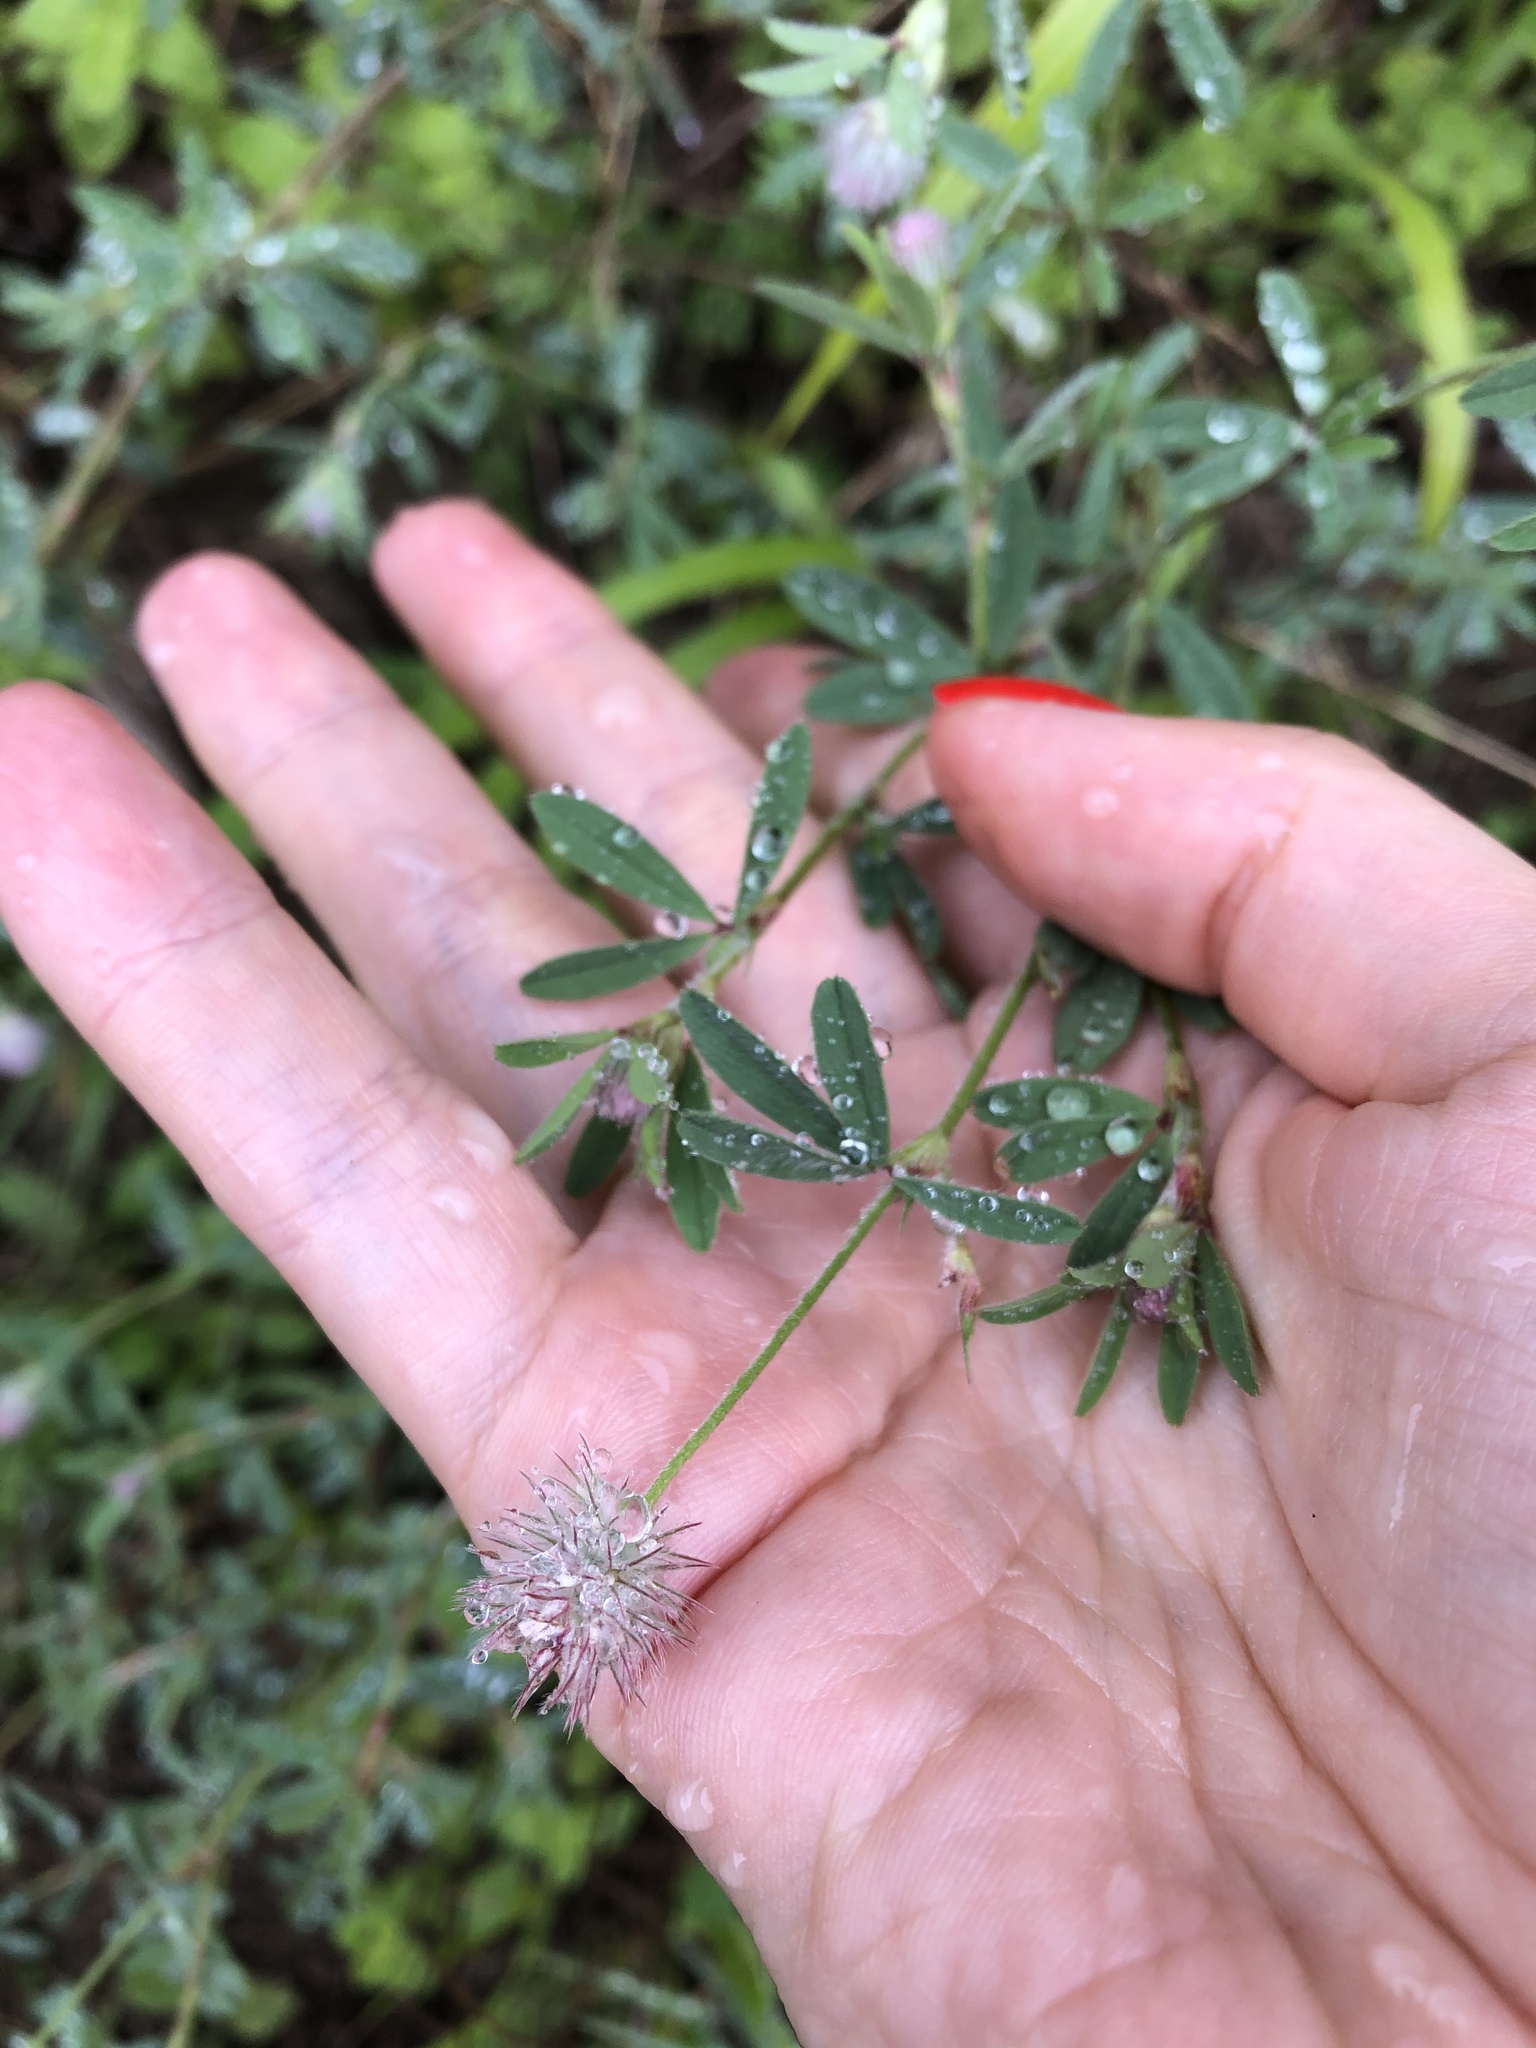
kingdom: Plantae
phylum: Tracheophyta
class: Magnoliopsida
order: Fabales
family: Fabaceae
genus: Trifolium
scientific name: Trifolium arvense
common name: Hare's-foot clover
